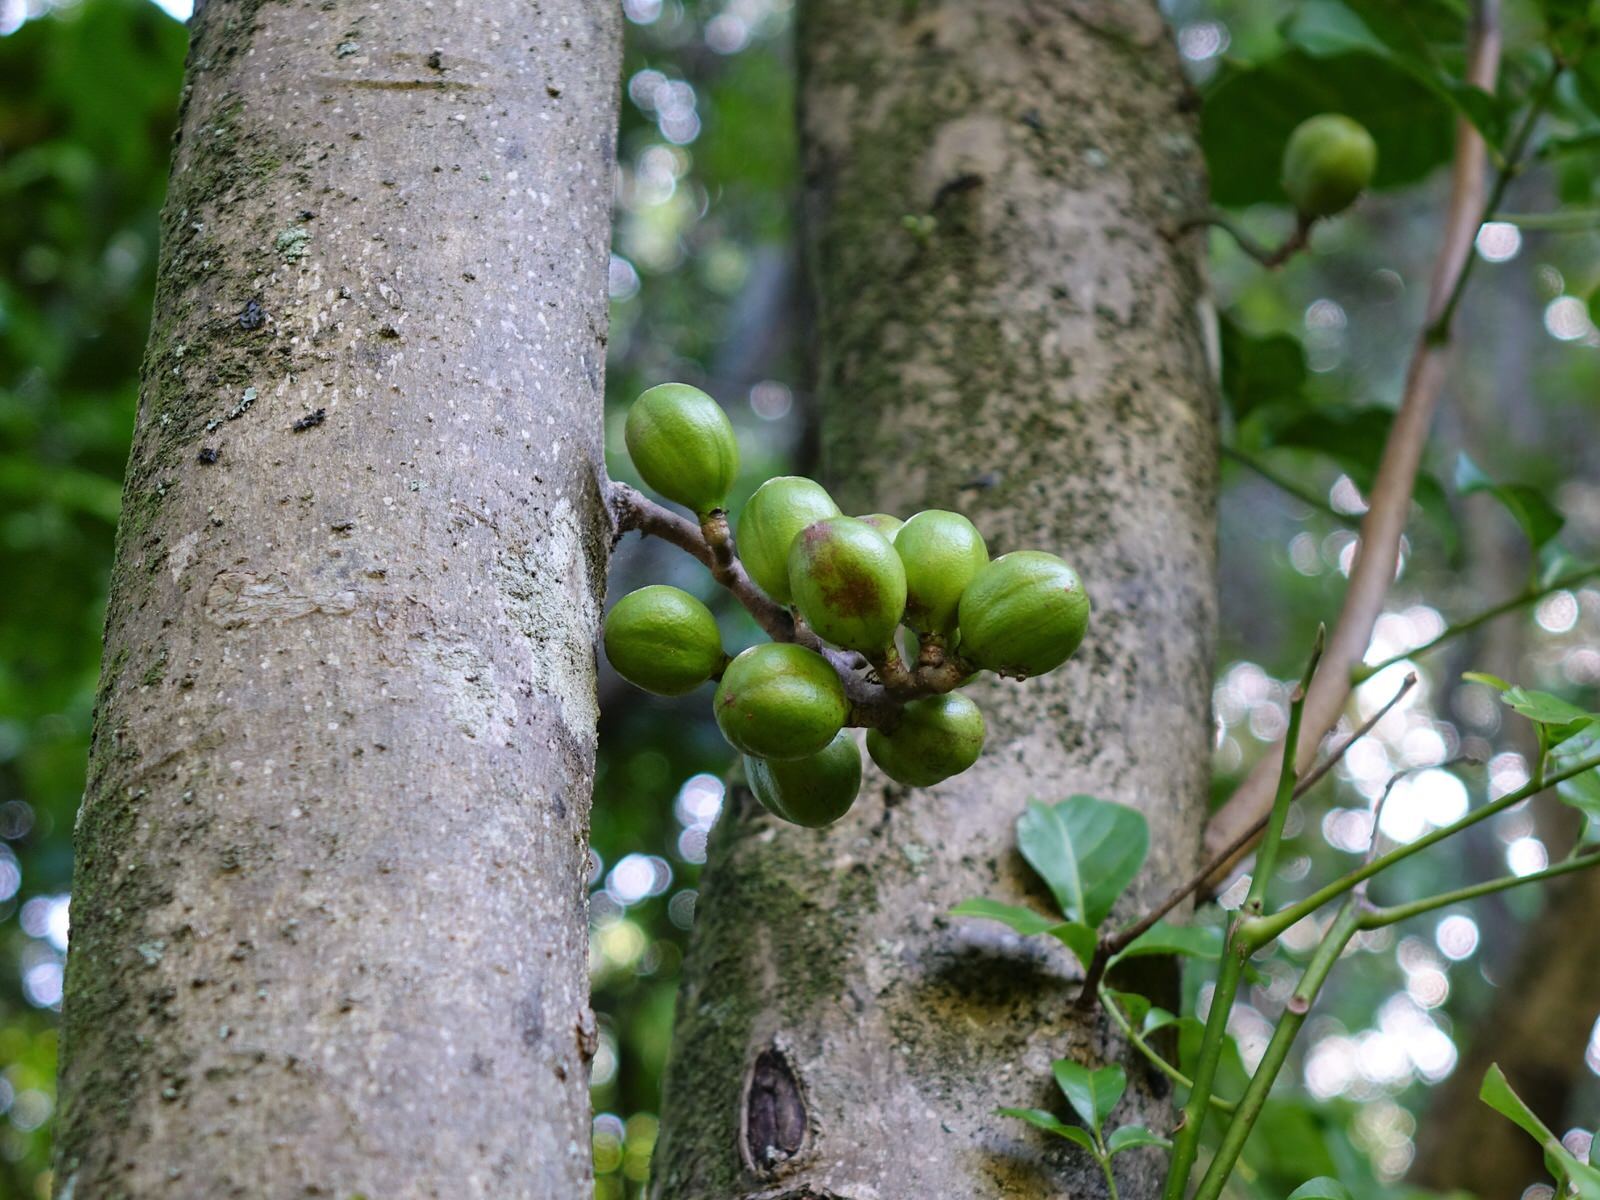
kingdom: Plantae
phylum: Tracheophyta
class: Magnoliopsida
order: Sapindales
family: Meliaceae
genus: Didymocheton
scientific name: Didymocheton spectabilis
